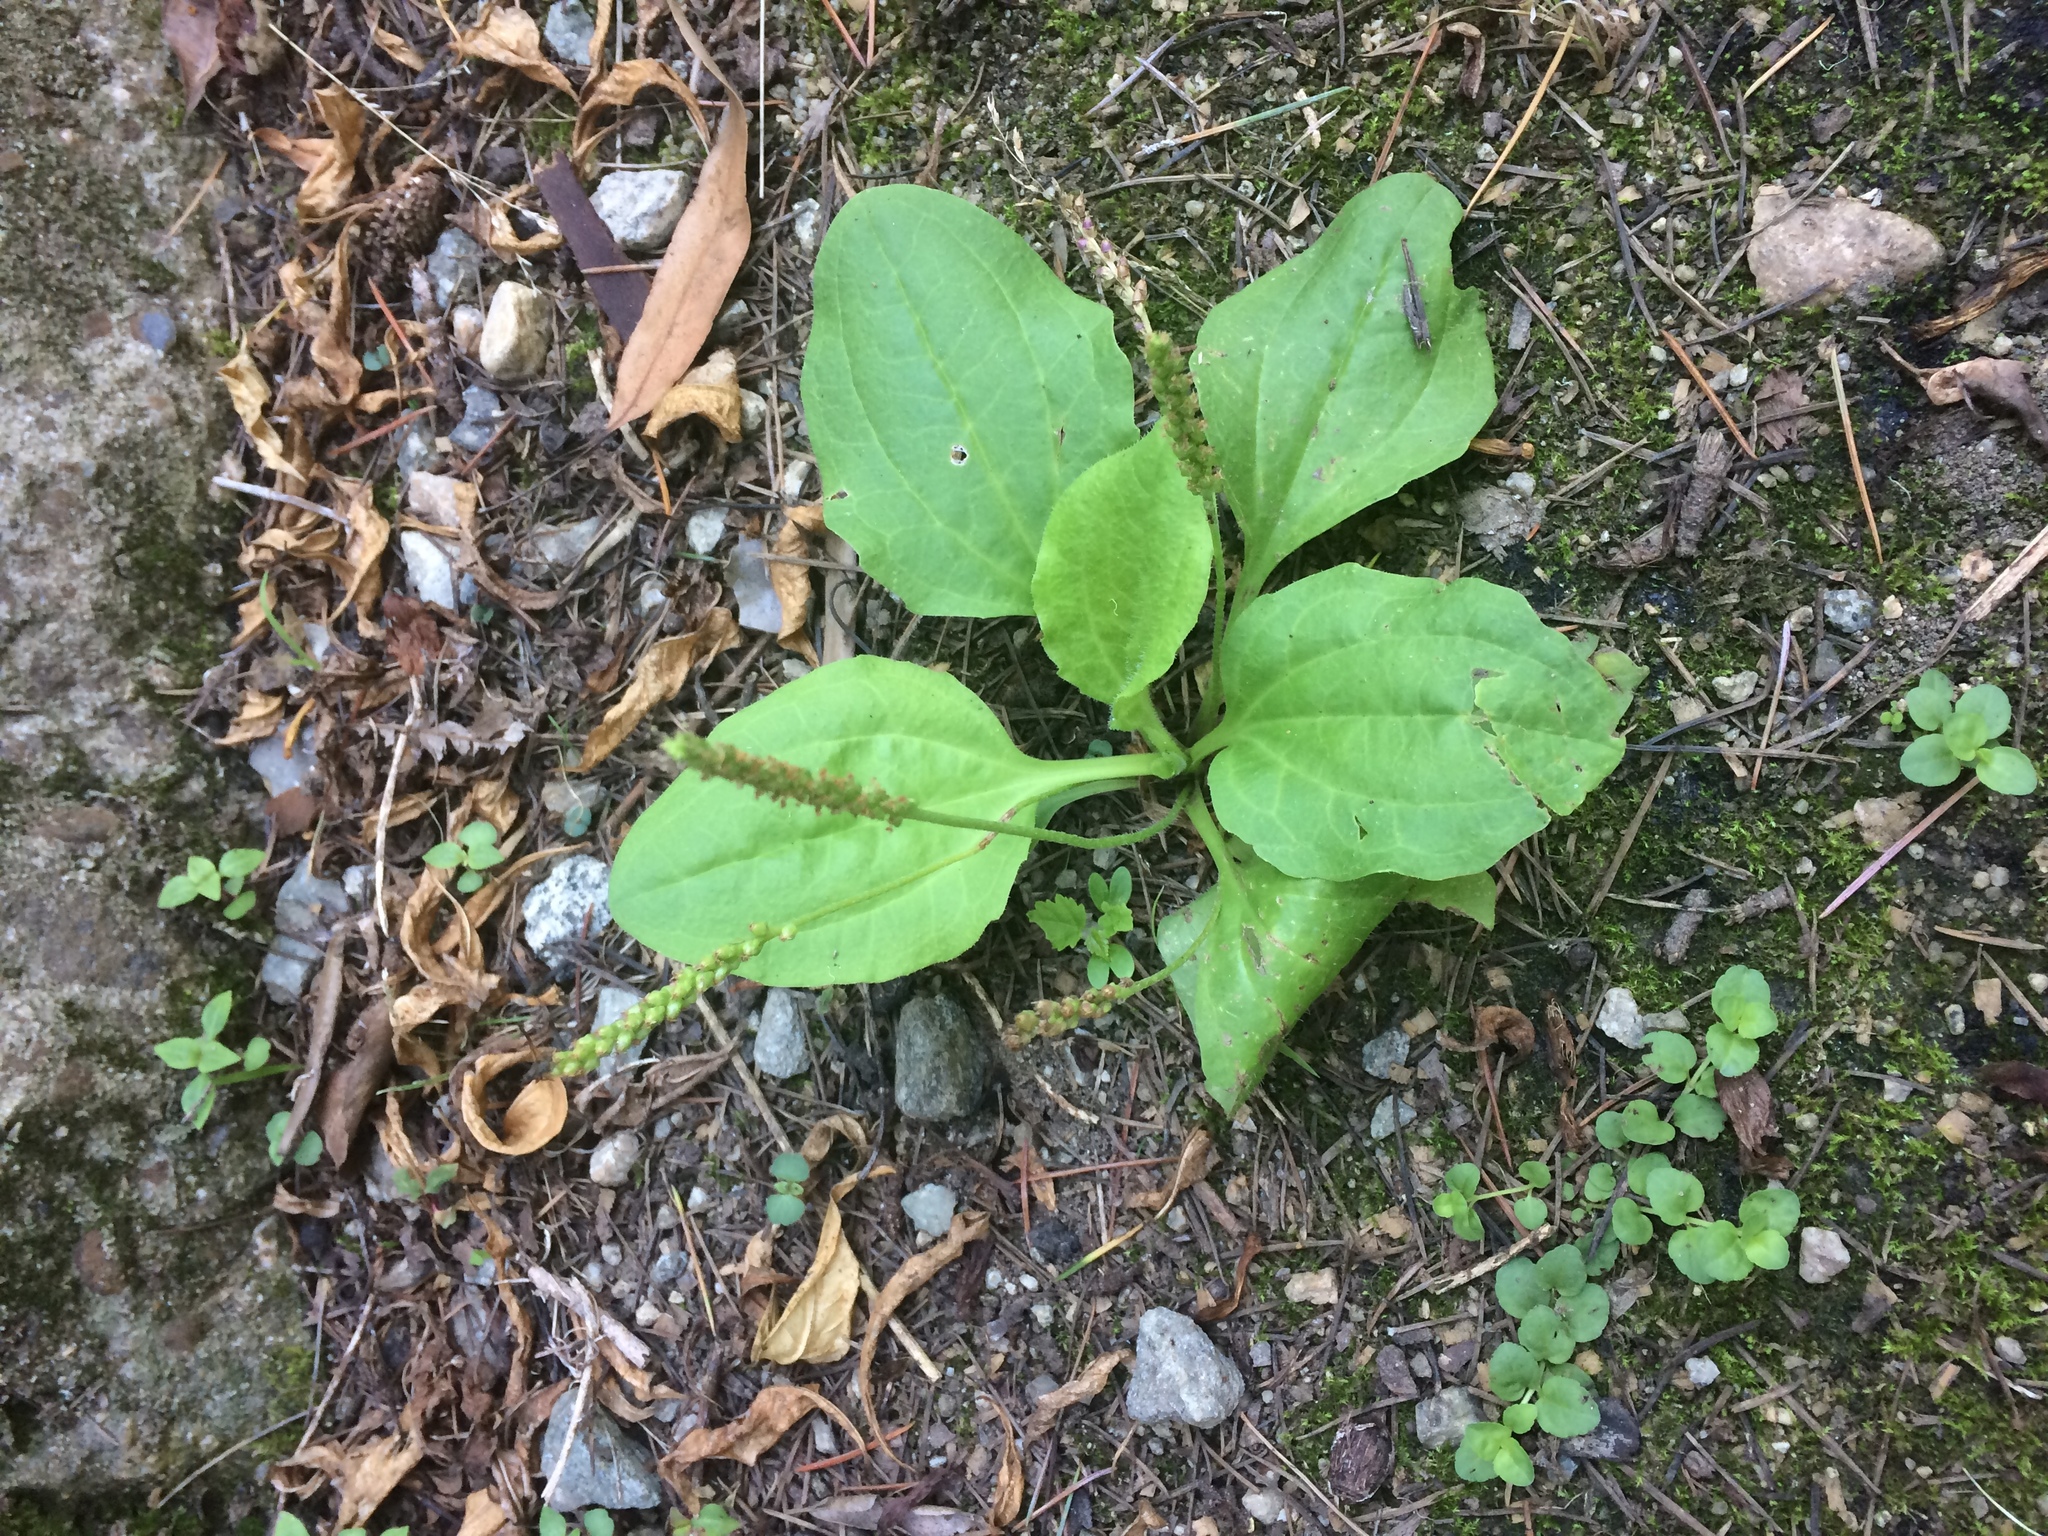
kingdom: Plantae
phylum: Tracheophyta
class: Magnoliopsida
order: Lamiales
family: Plantaginaceae
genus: Plantago
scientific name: Plantago major
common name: Common plantain
